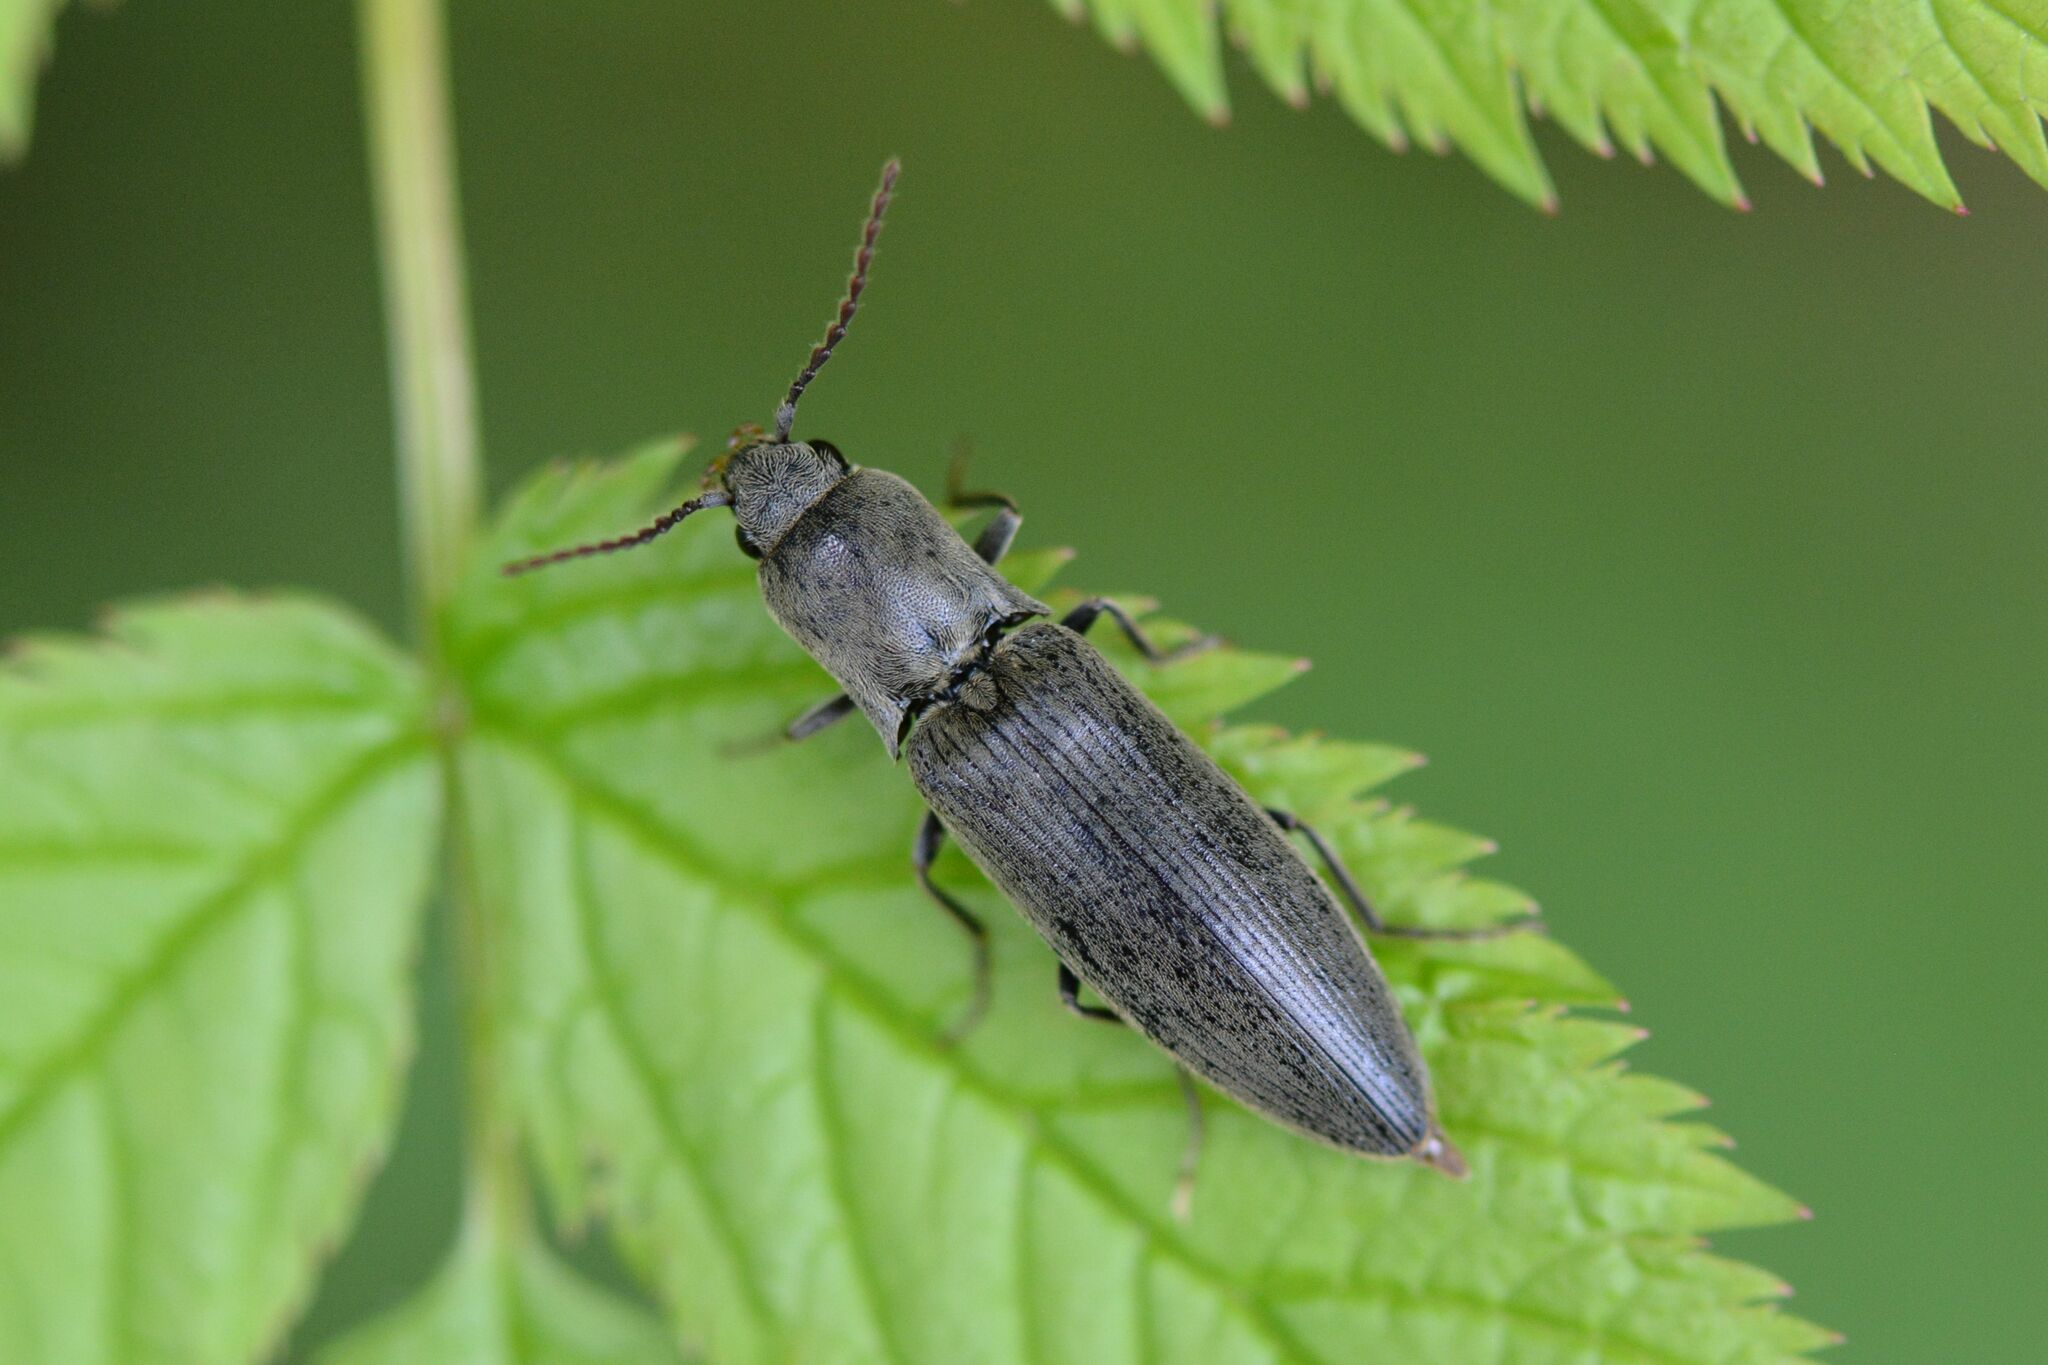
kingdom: Animalia
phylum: Arthropoda
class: Insecta
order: Coleoptera
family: Elateridae
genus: Agriotes
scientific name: Agriotes pilosellus
